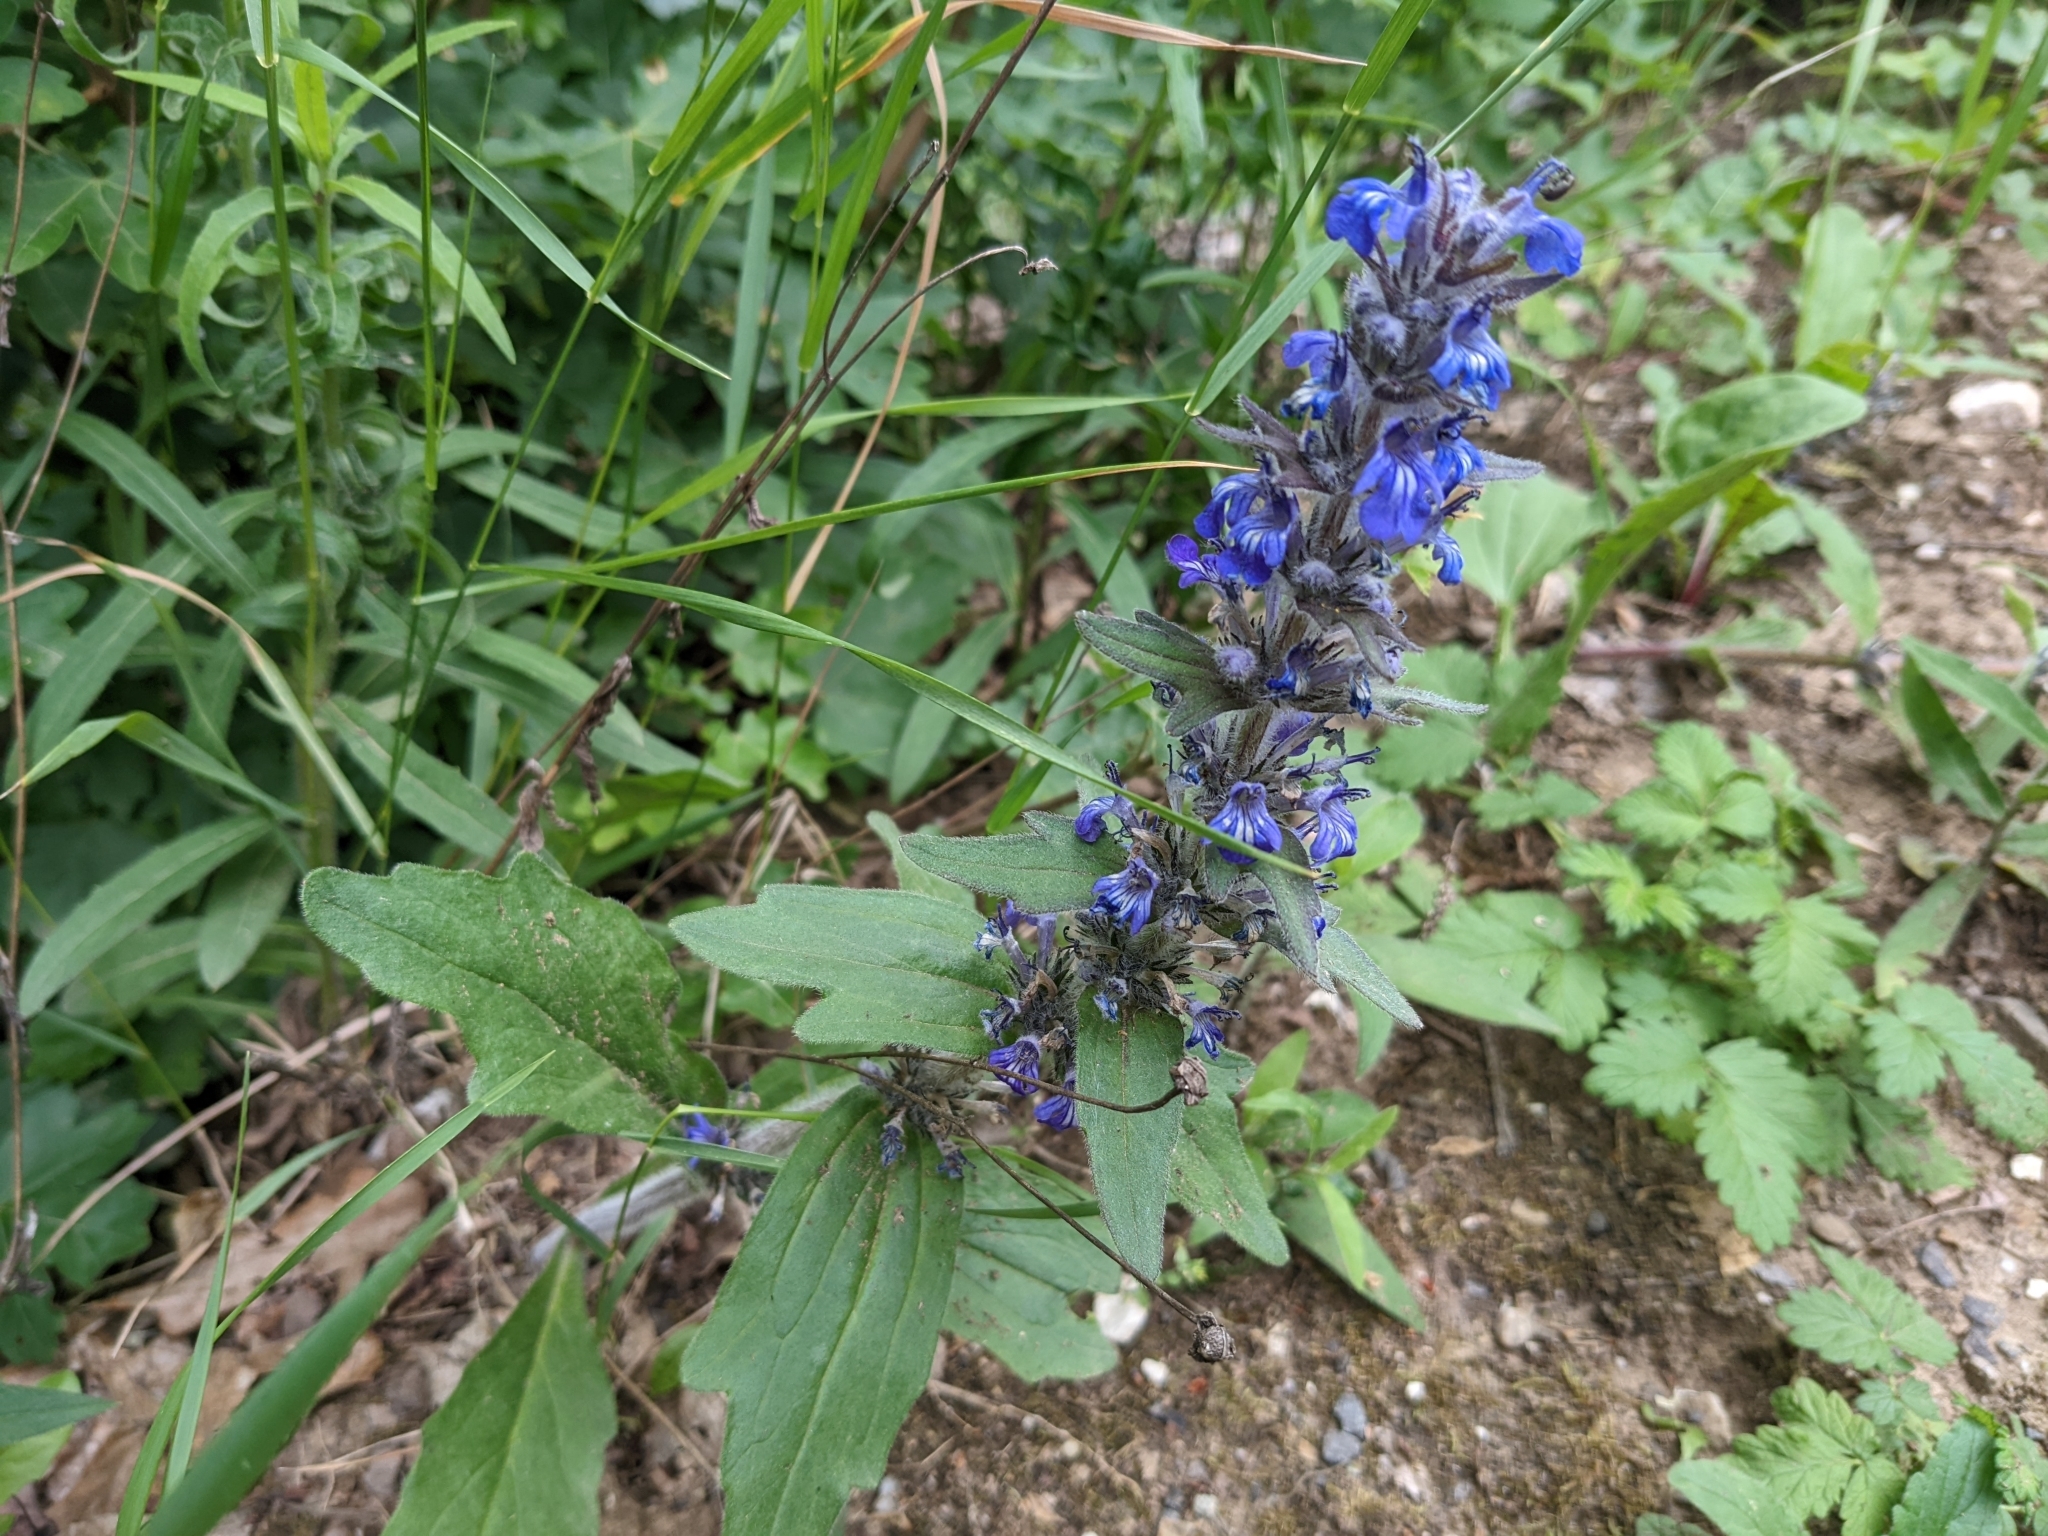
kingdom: Plantae
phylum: Tracheophyta
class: Magnoliopsida
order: Lamiales
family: Lamiaceae
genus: Ajuga
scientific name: Ajuga genevensis
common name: Blue bugle
